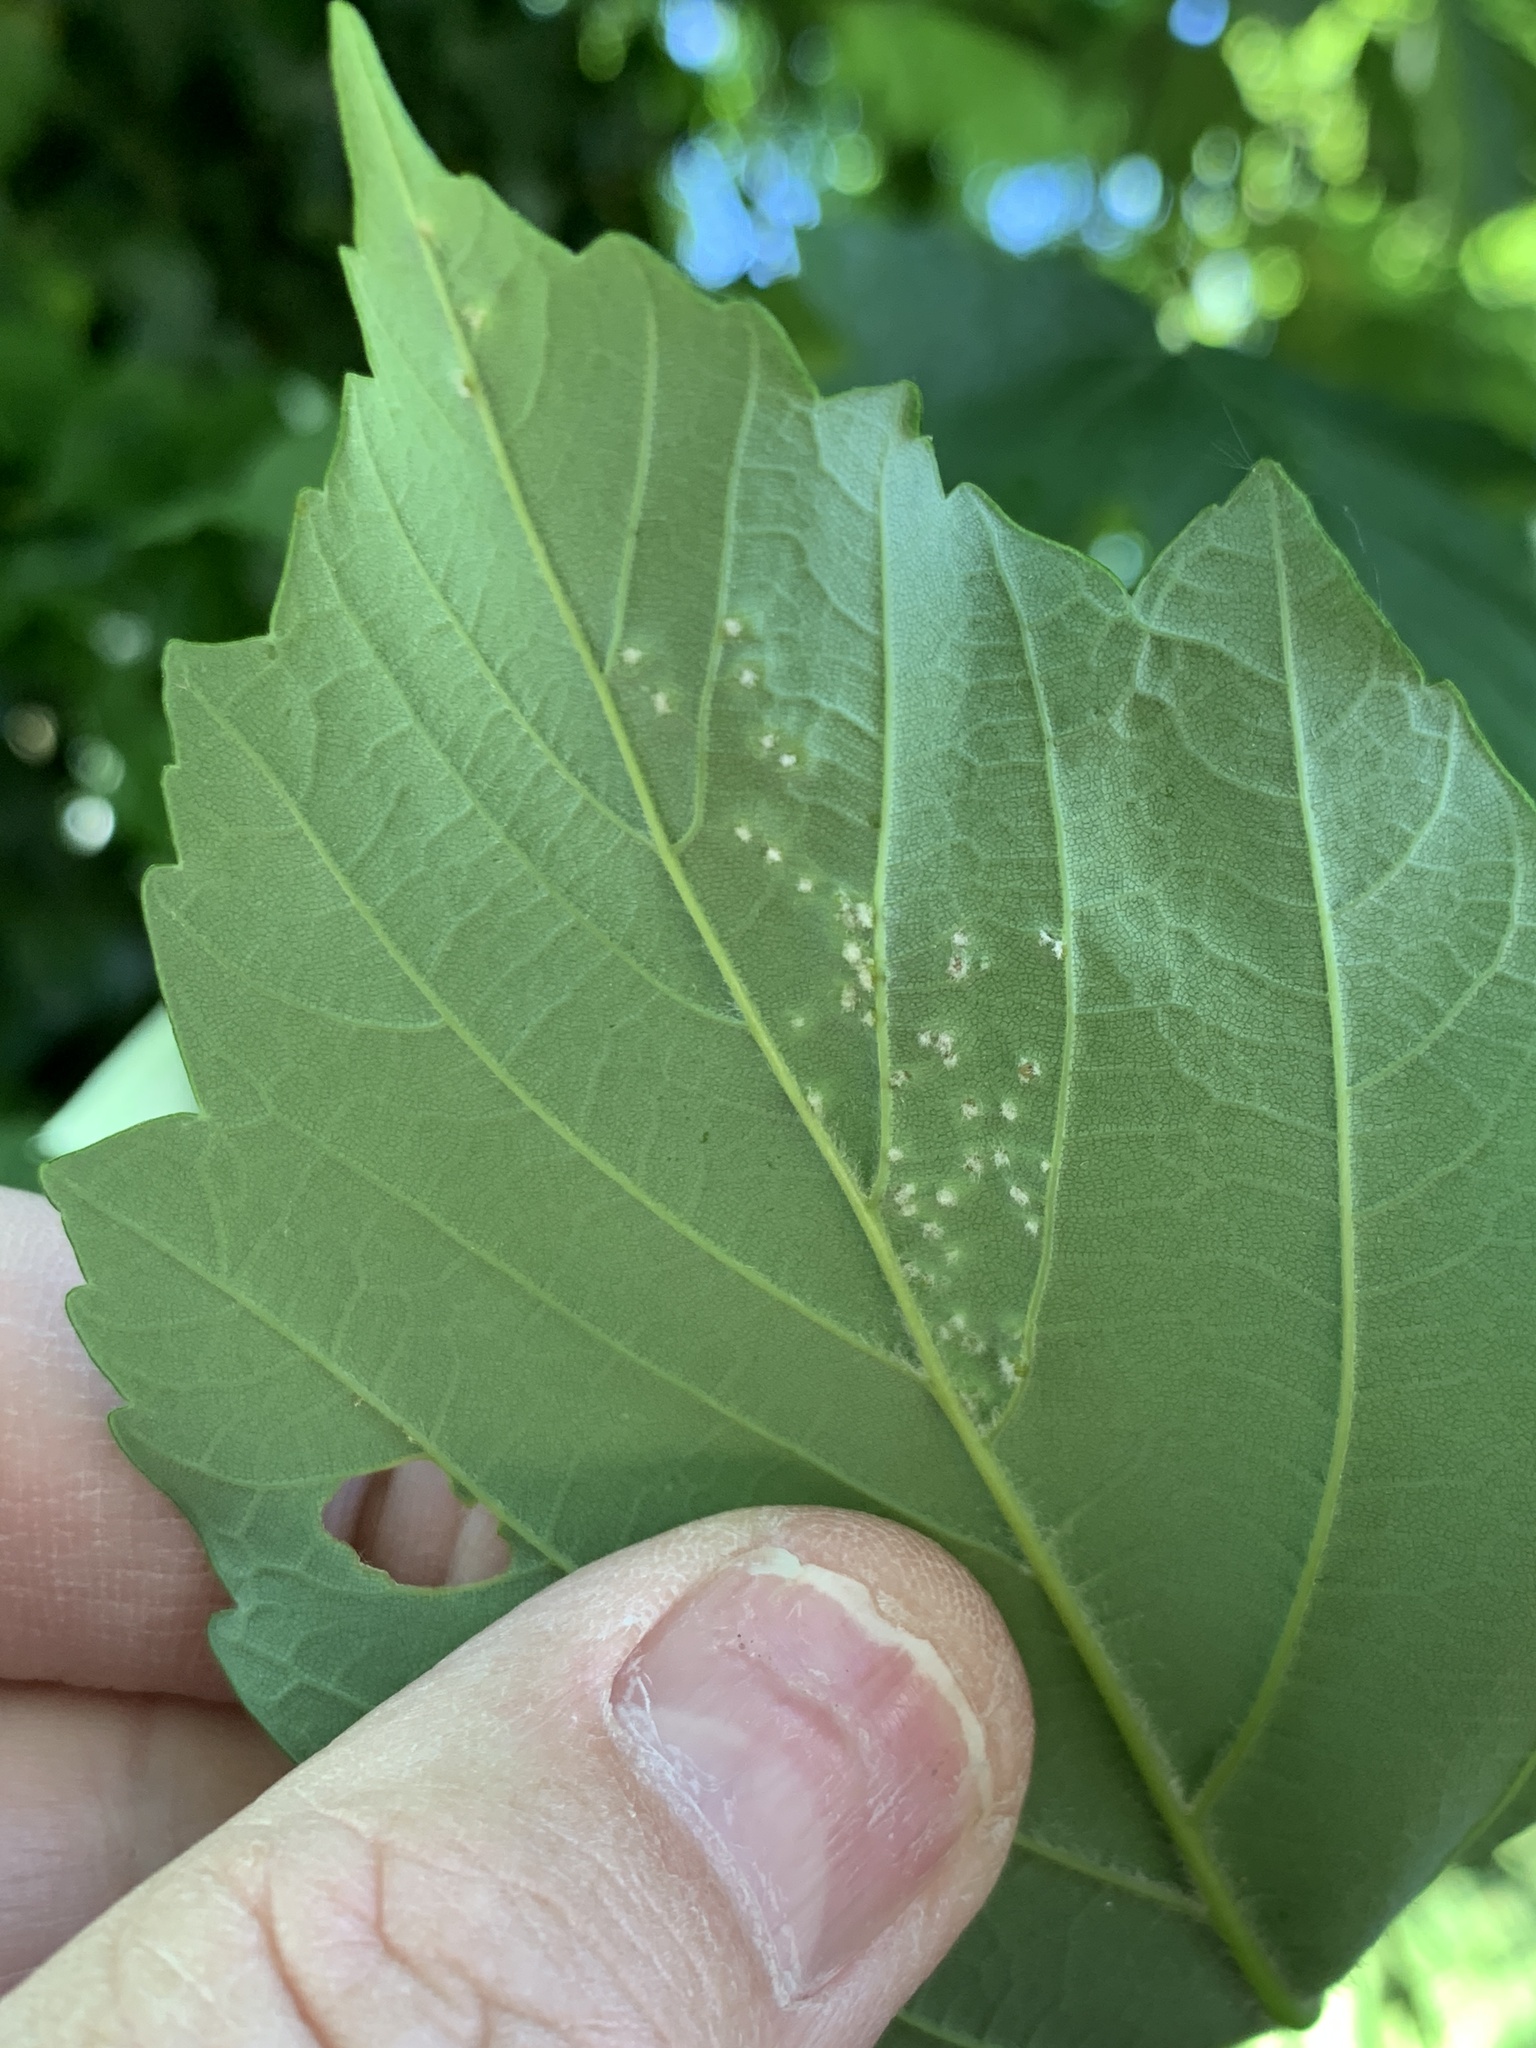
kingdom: Animalia
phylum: Arthropoda
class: Arachnida
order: Trombidiformes
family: Eriophyidae
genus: Aceria
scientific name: Aceria cephaloneus
